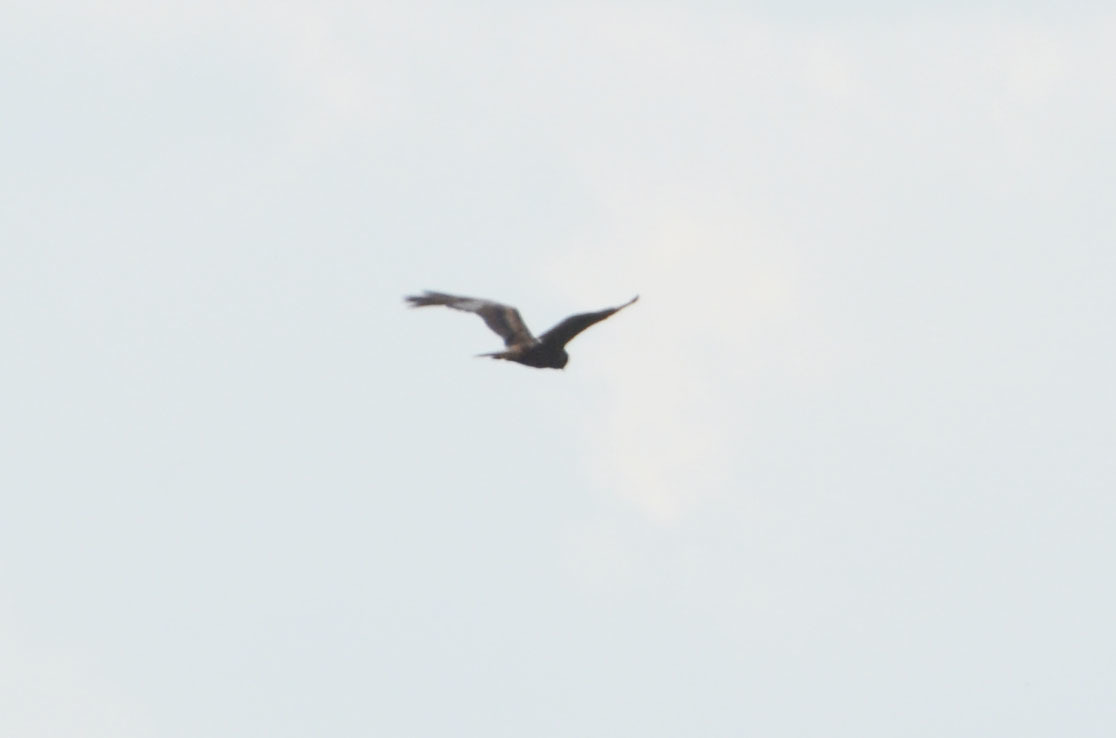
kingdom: Animalia
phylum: Chordata
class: Aves
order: Accipitriformes
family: Accipitridae
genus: Circus
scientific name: Circus aeruginosus
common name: Western marsh harrier
